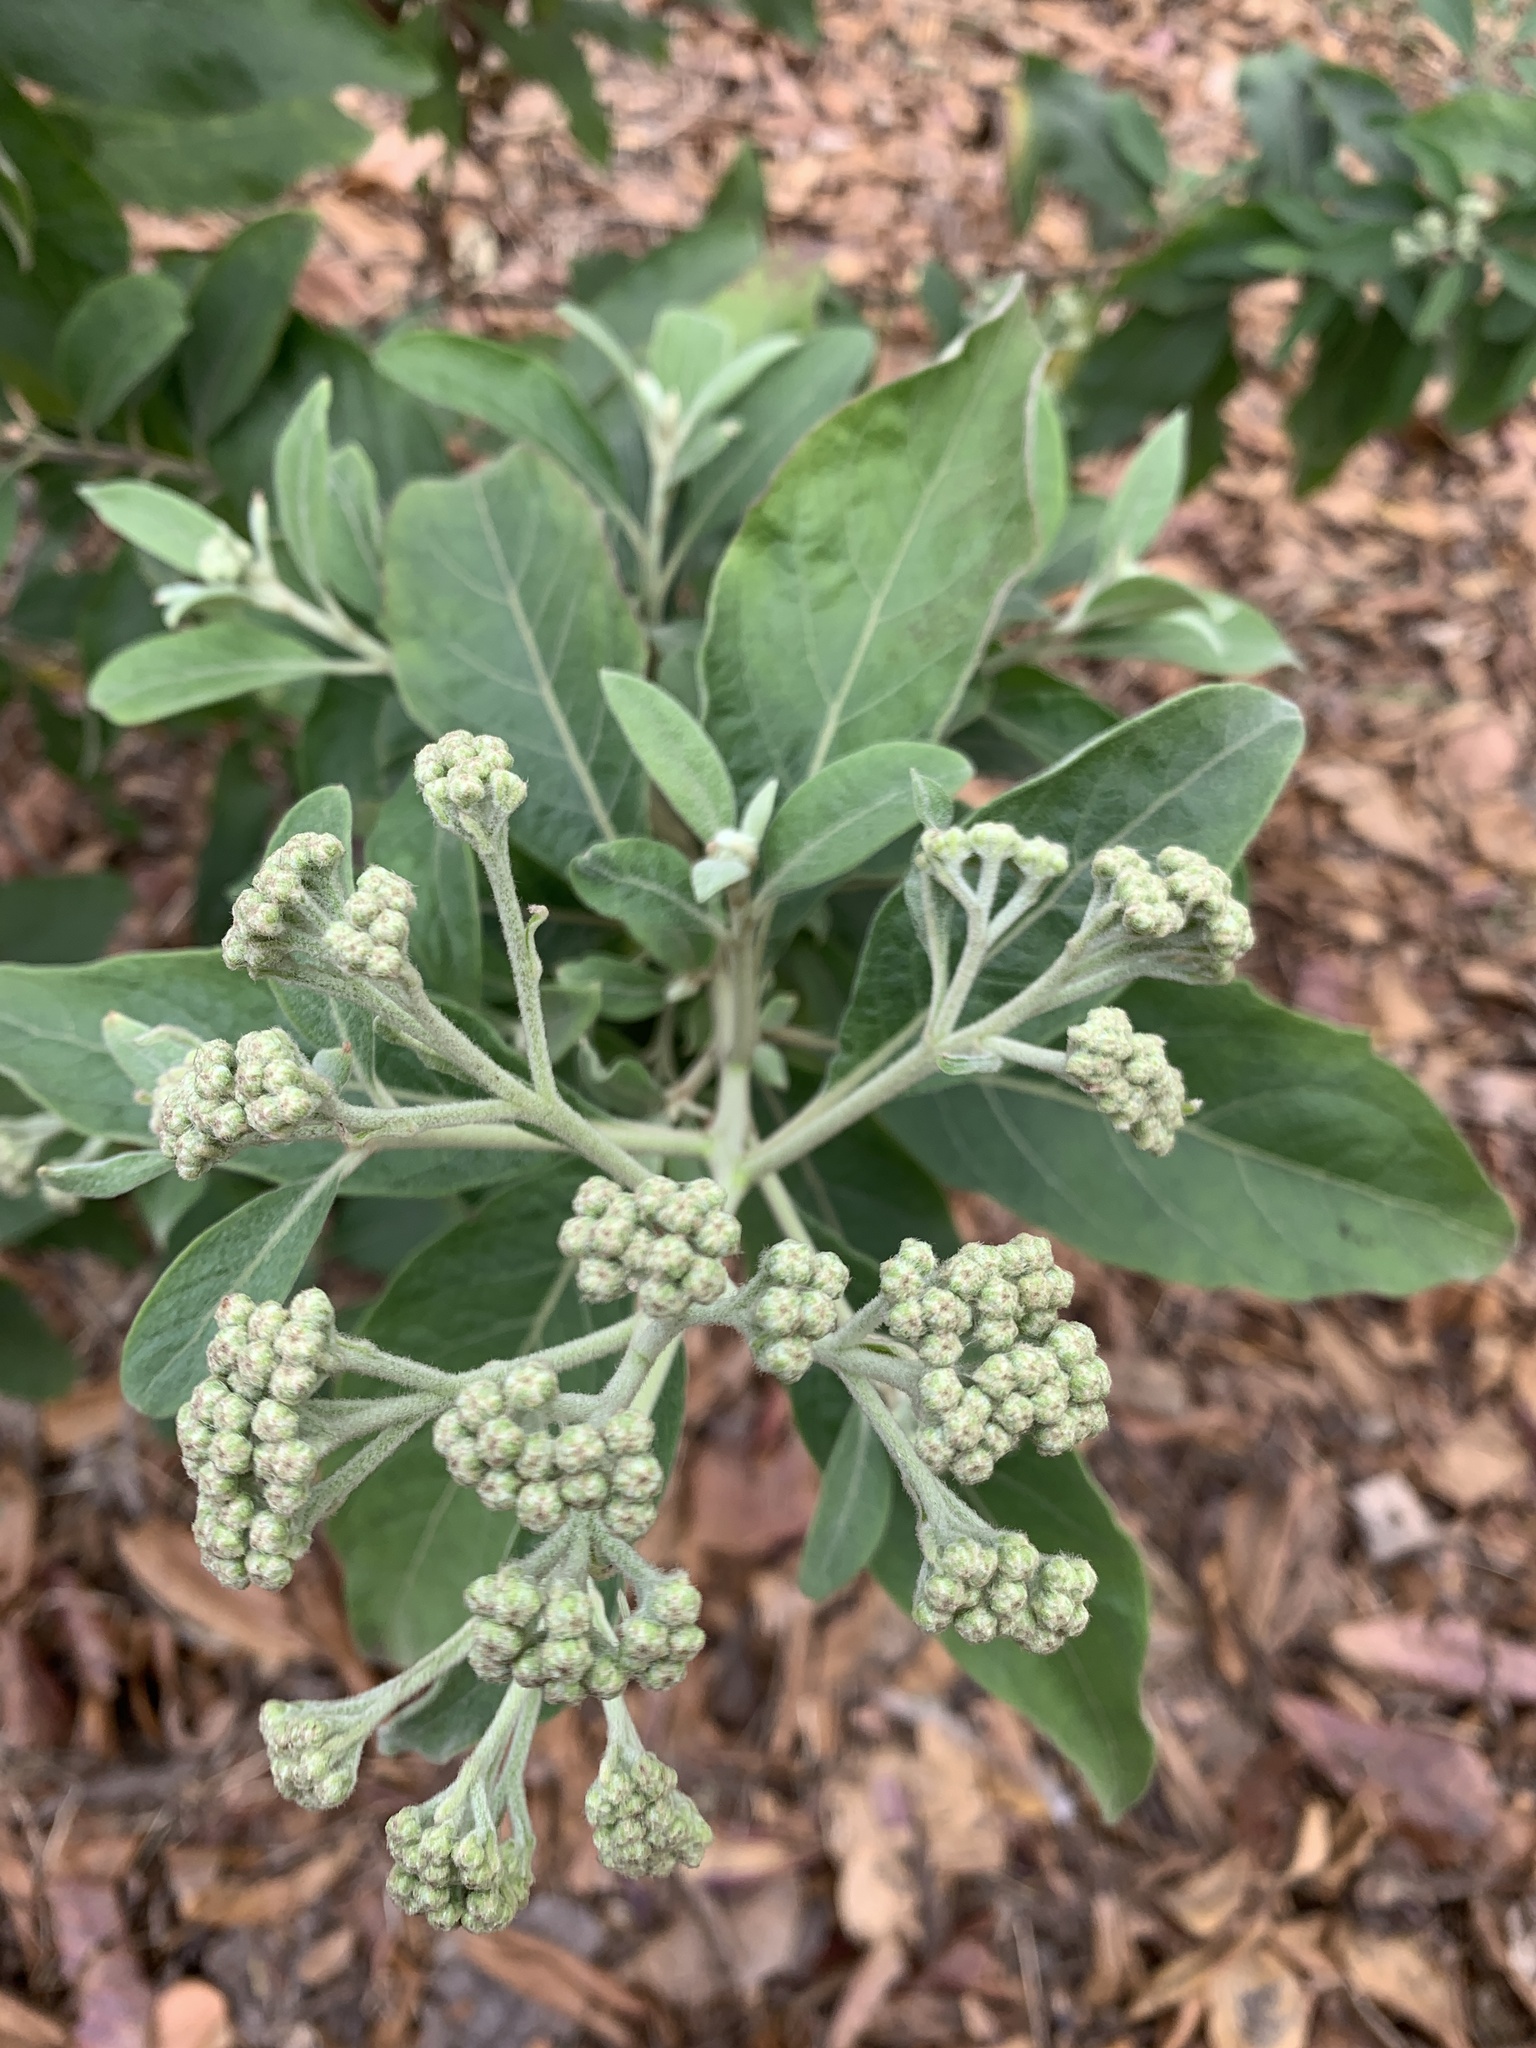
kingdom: Plantae
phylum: Tracheophyta
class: Magnoliopsida
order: Asterales
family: Asteraceae
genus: Pluchea
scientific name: Pluchea carolinensis
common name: Marsh fleabane
